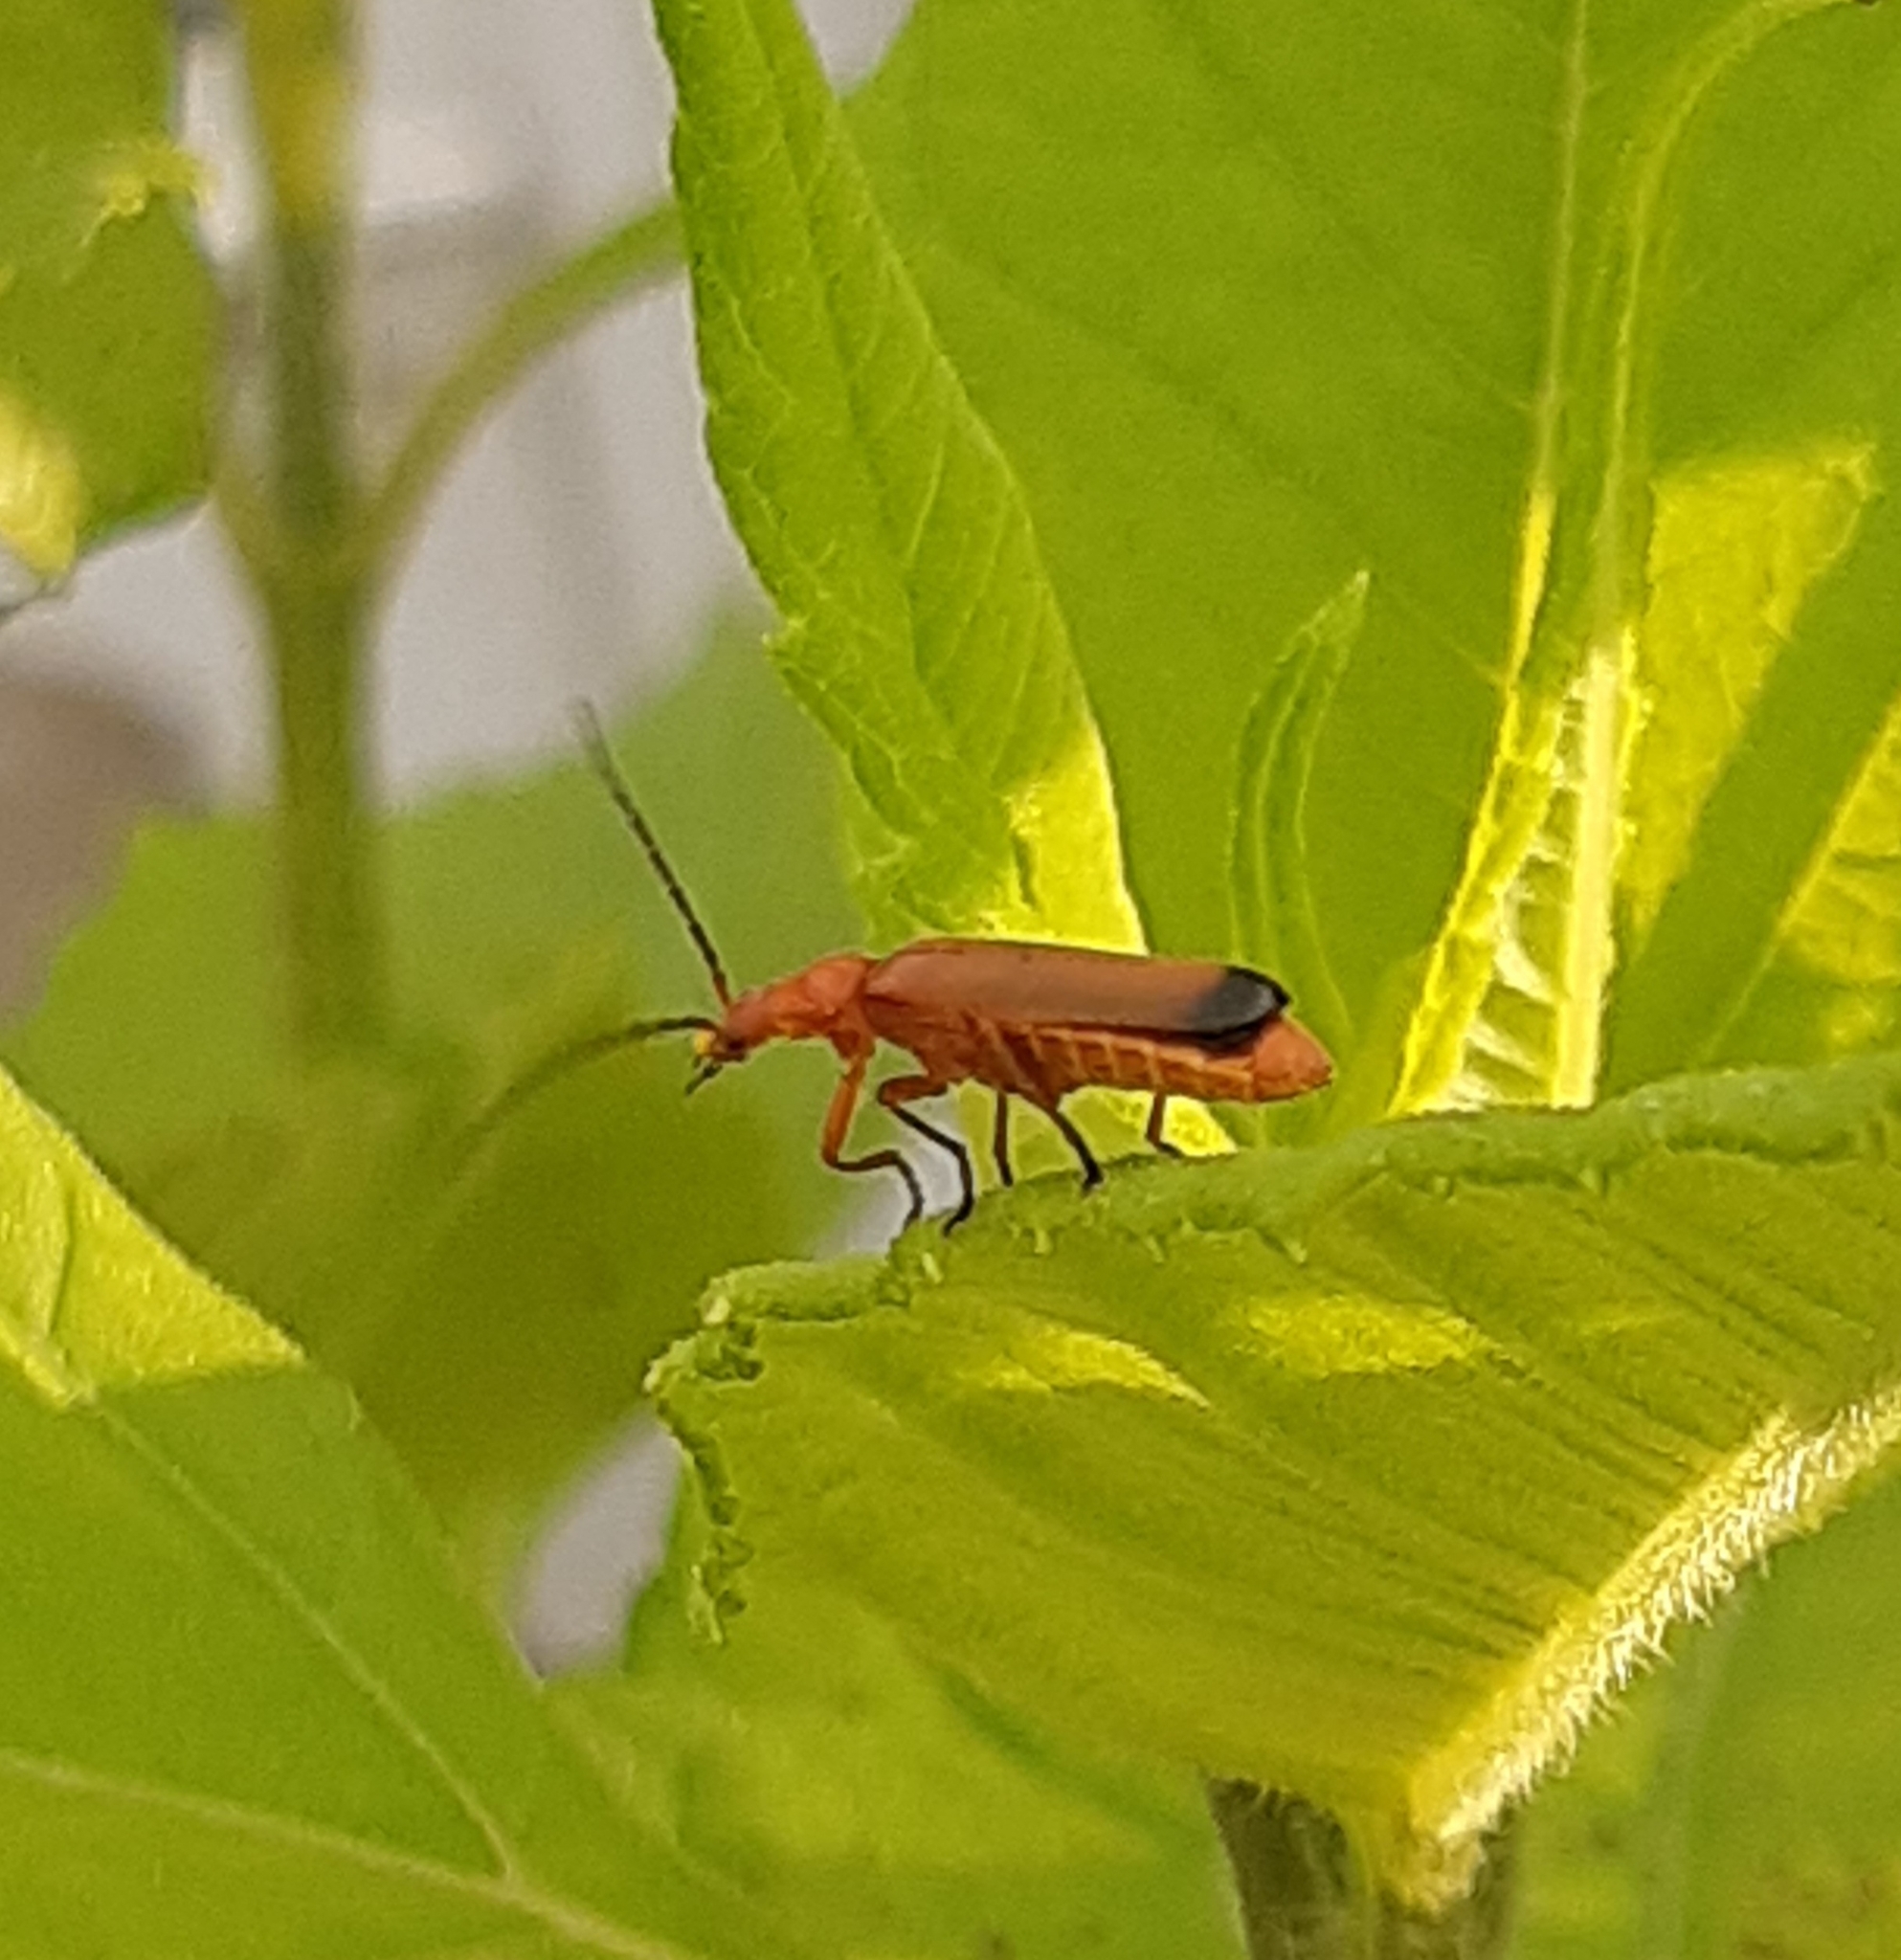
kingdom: Animalia
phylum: Arthropoda
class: Insecta
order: Coleoptera
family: Cantharidae
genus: Rhagonycha
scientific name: Rhagonycha fulva
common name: Common red soldier beetle
